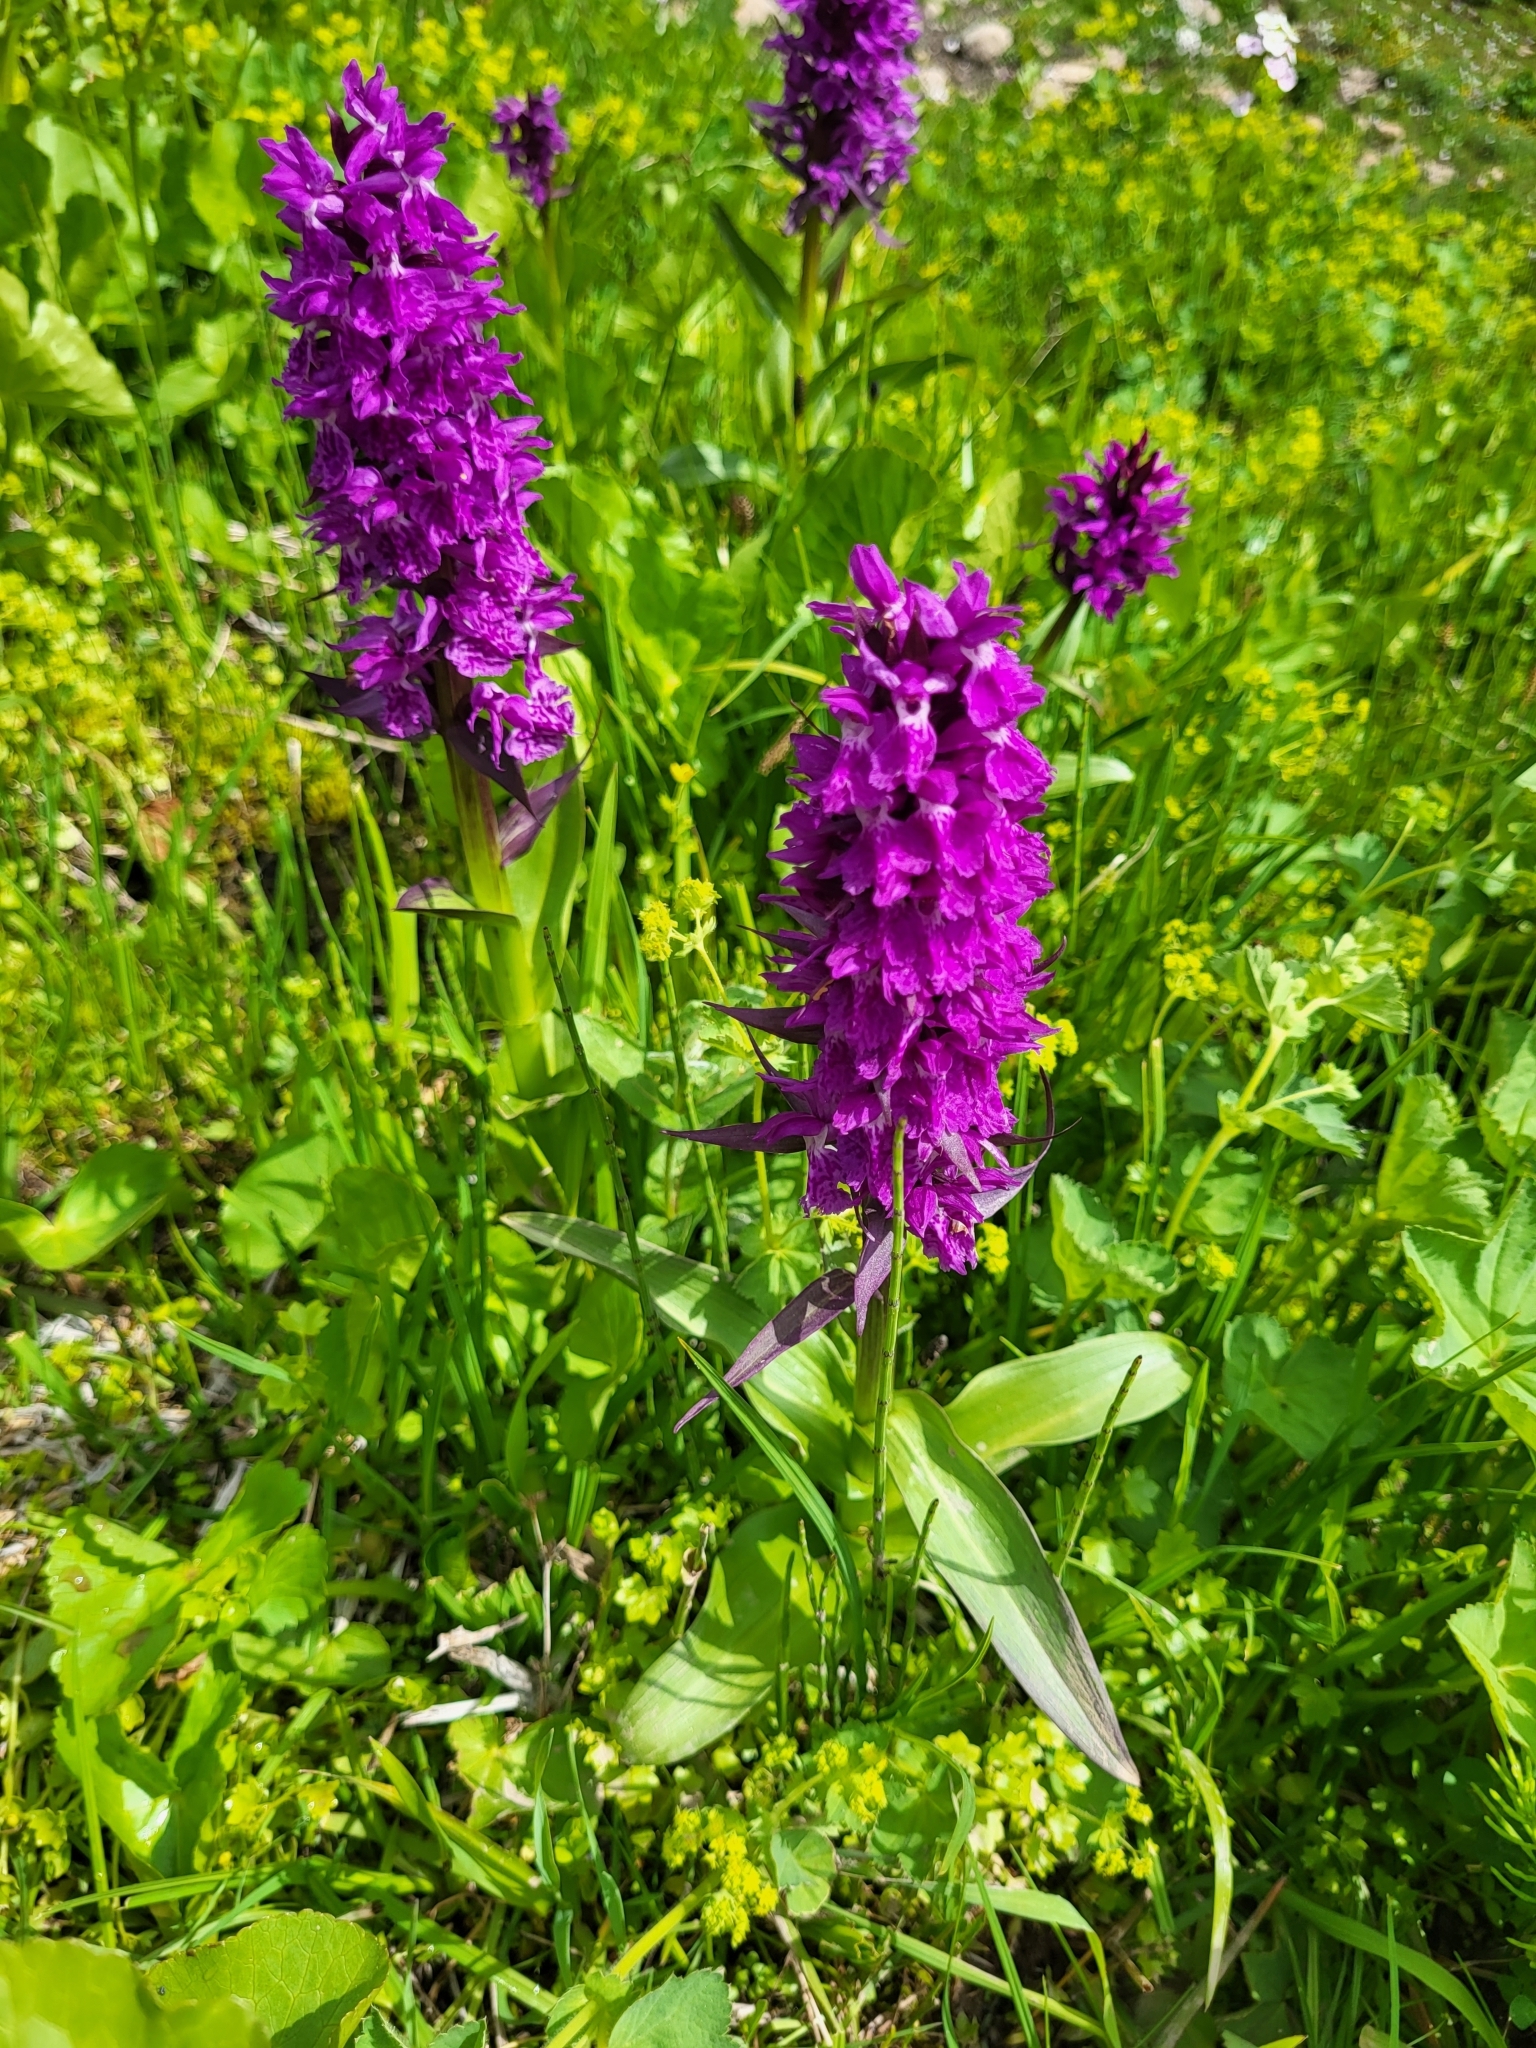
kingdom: Plantae
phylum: Tracheophyta
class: Liliopsida
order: Asparagales
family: Orchidaceae
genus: Dactylorhiza
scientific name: Dactylorhiza euxina
